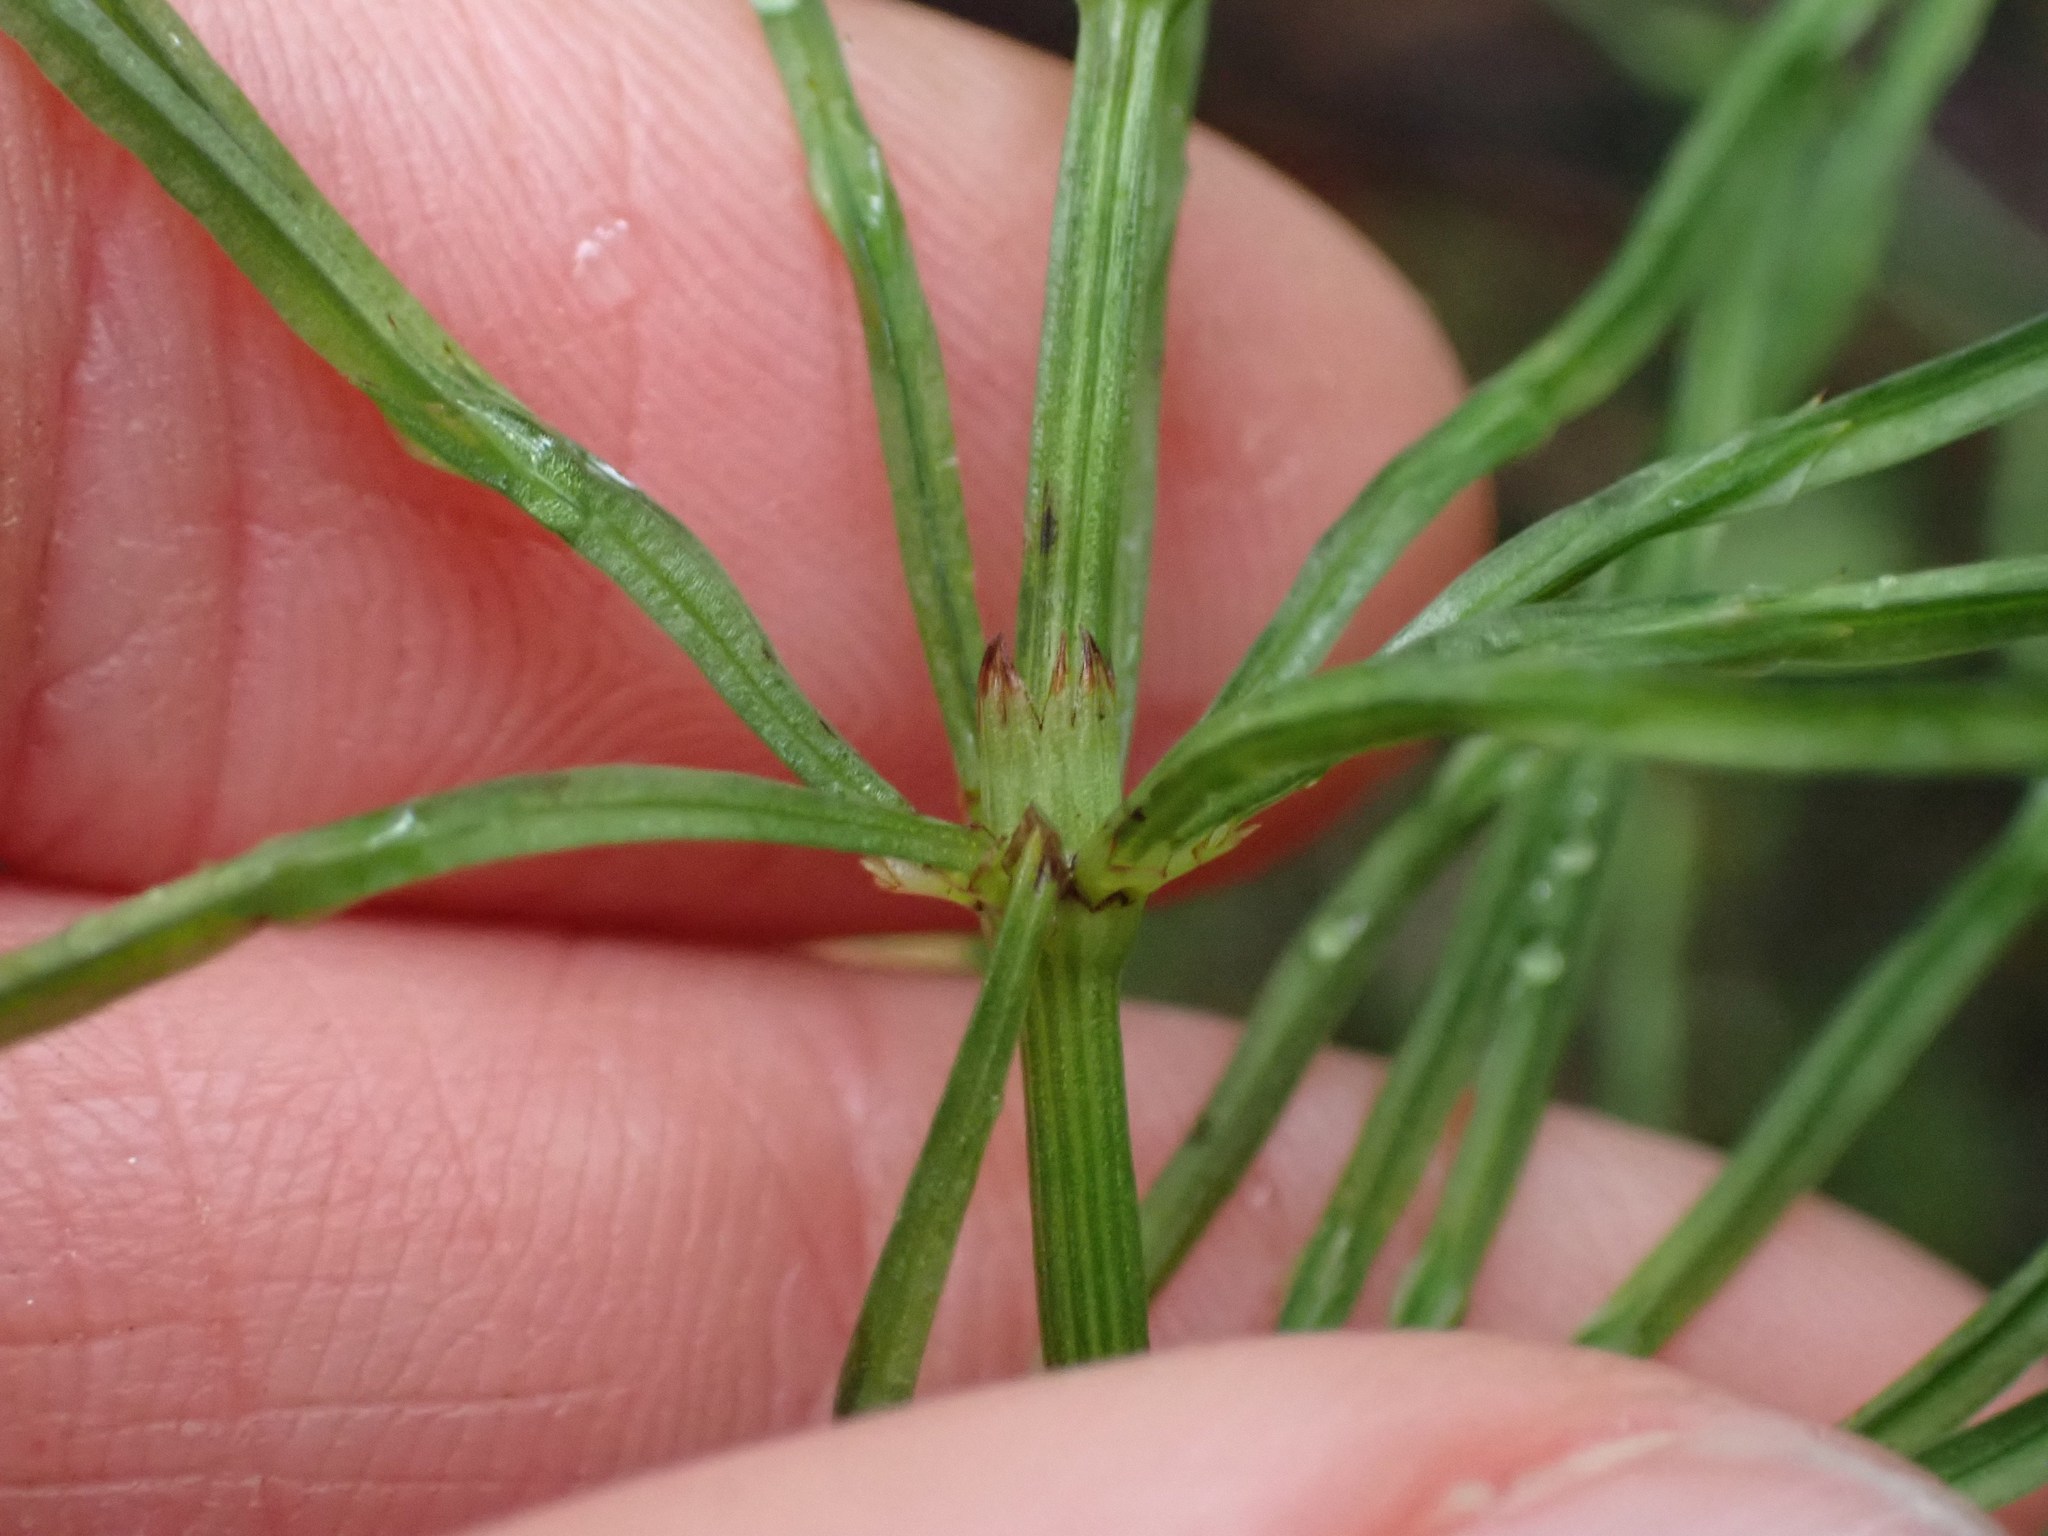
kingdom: Plantae
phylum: Tracheophyta
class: Polypodiopsida
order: Equisetales
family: Equisetaceae
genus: Equisetum
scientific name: Equisetum arvense
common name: Field horsetail
